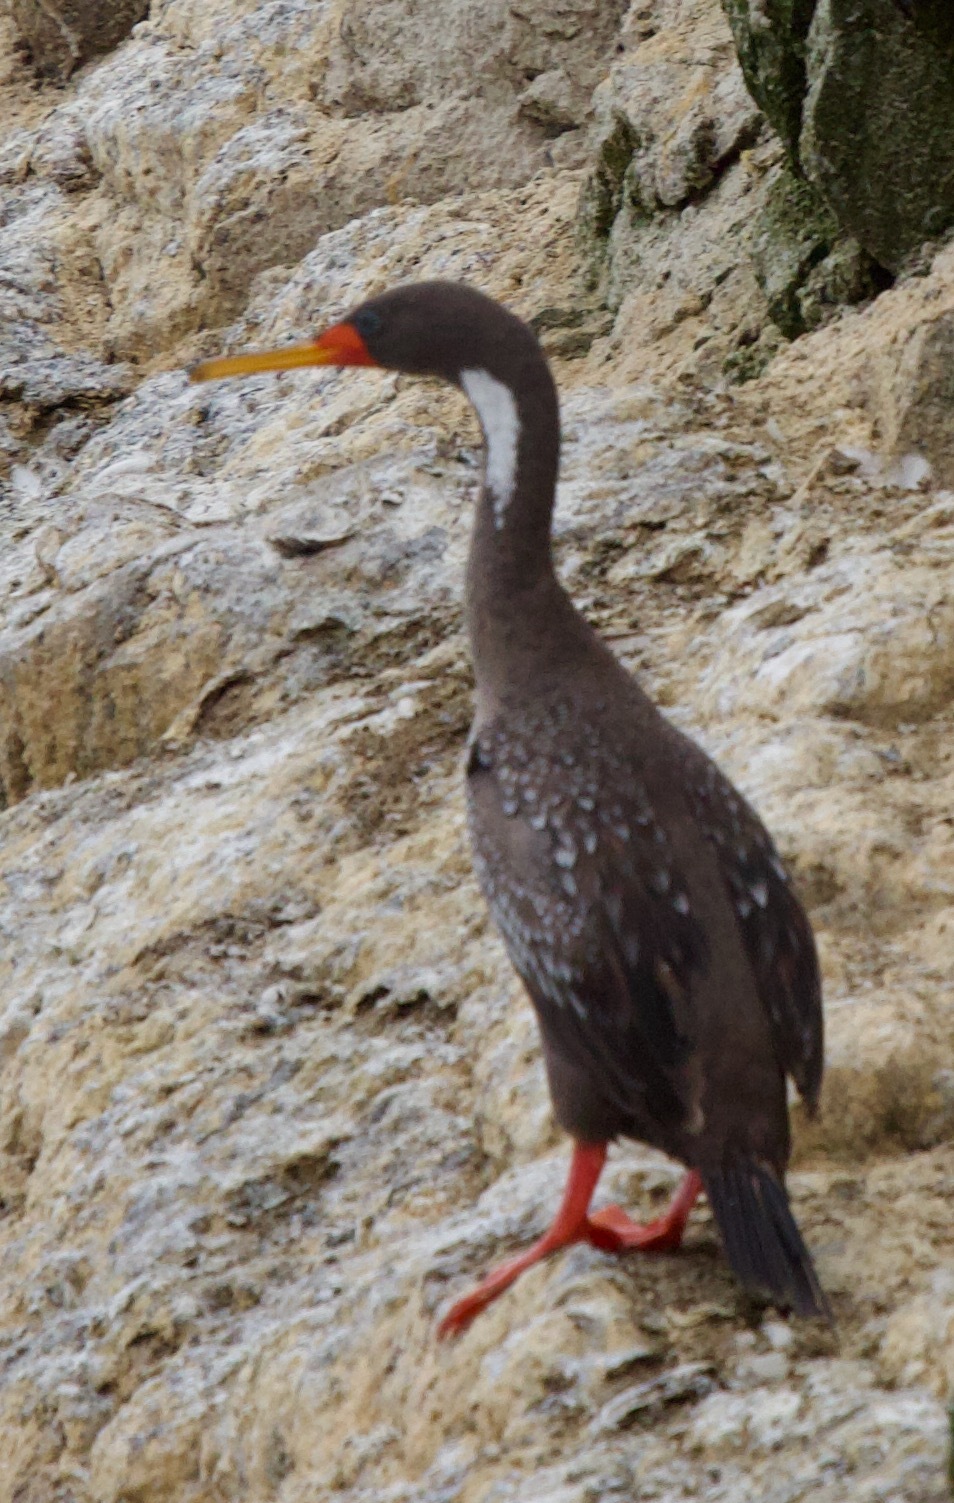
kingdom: Animalia
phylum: Chordata
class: Aves
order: Suliformes
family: Phalacrocoracidae
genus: Phalacrocorax
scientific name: Phalacrocorax gaimardi
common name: Red-legged cormorant
